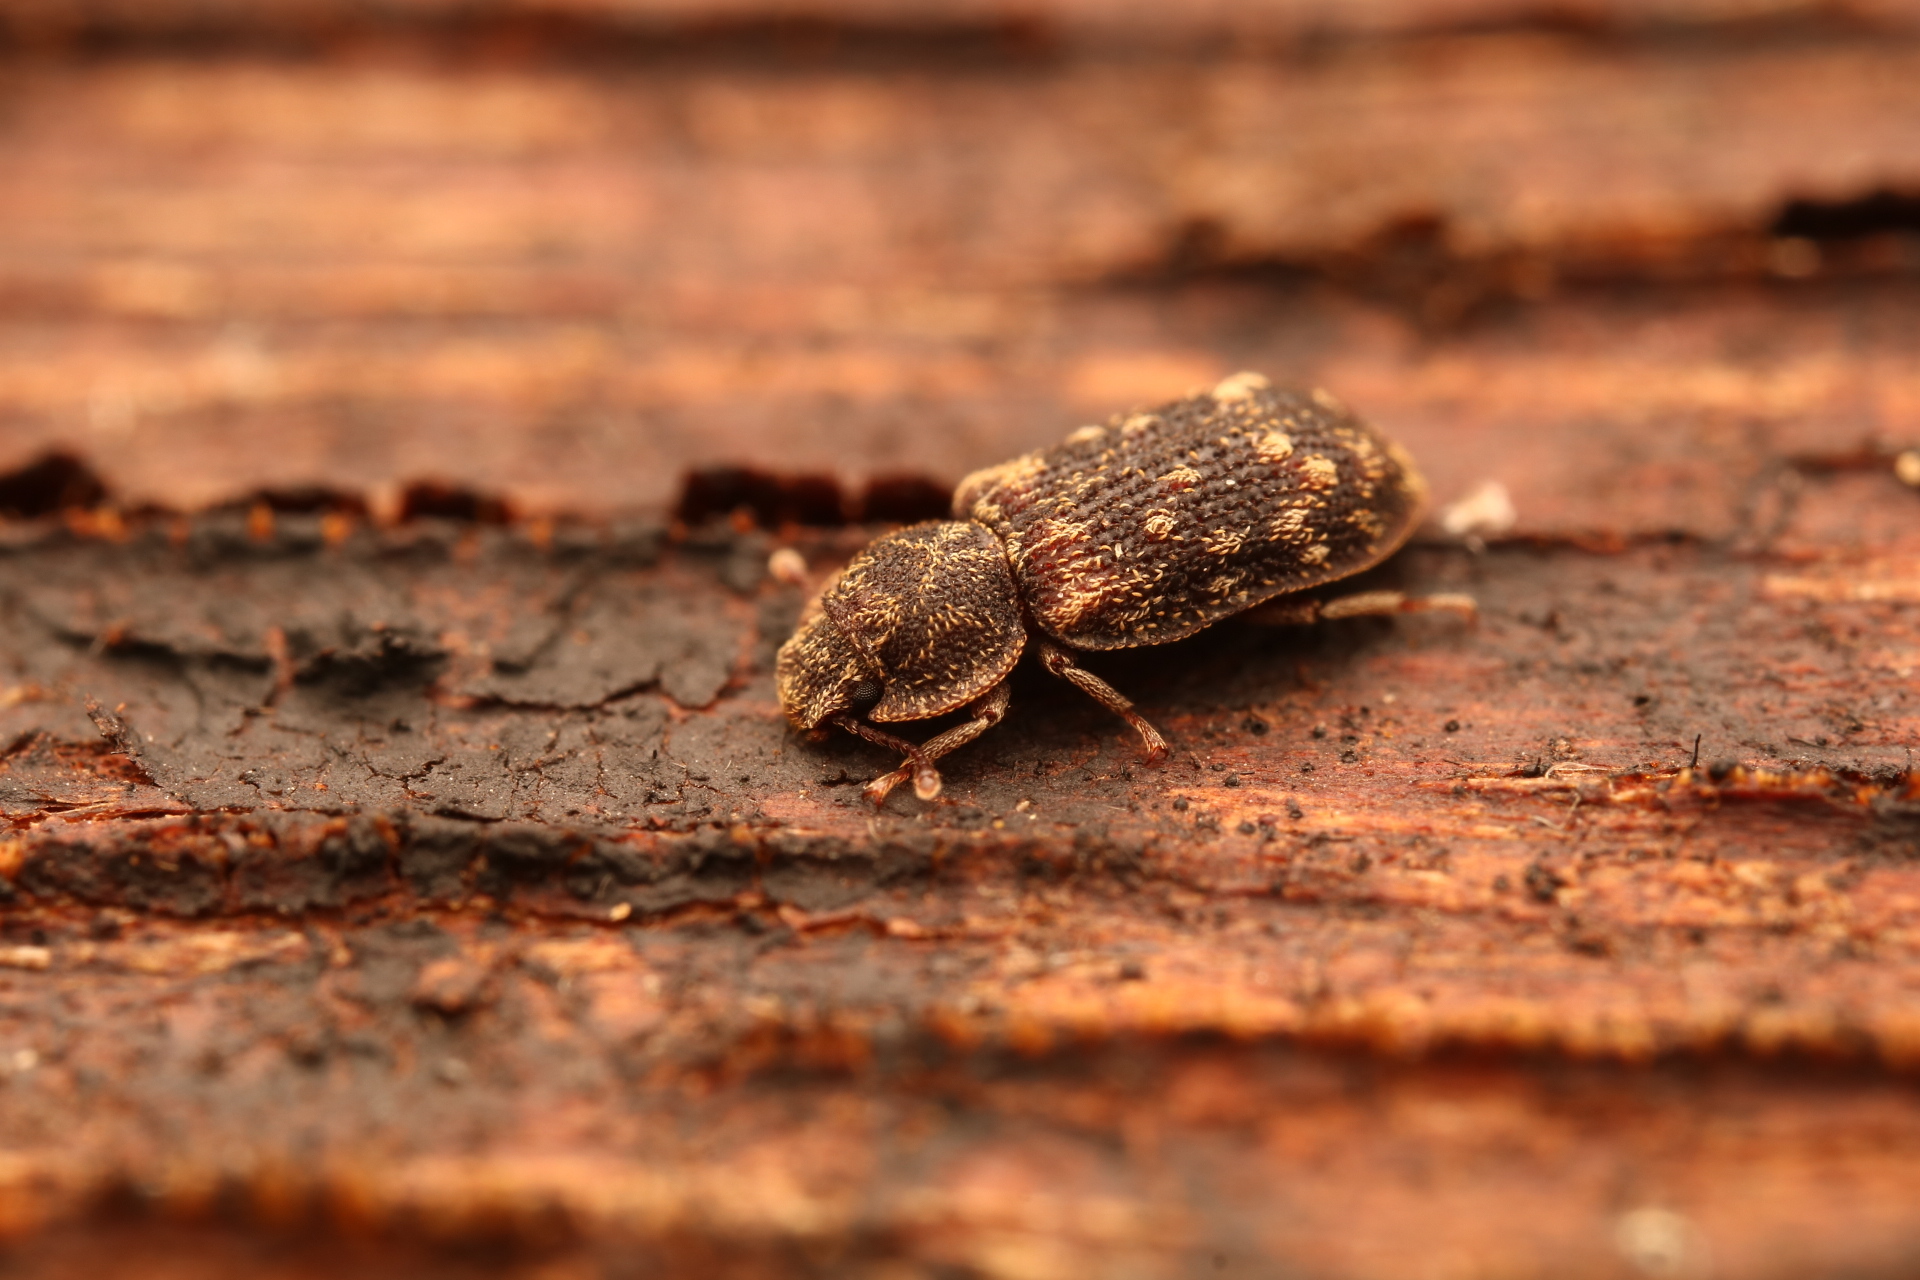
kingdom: Animalia
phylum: Arthropoda
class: Insecta
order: Coleoptera
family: Zopheridae
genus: Namunaria
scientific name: Namunaria guttulata
